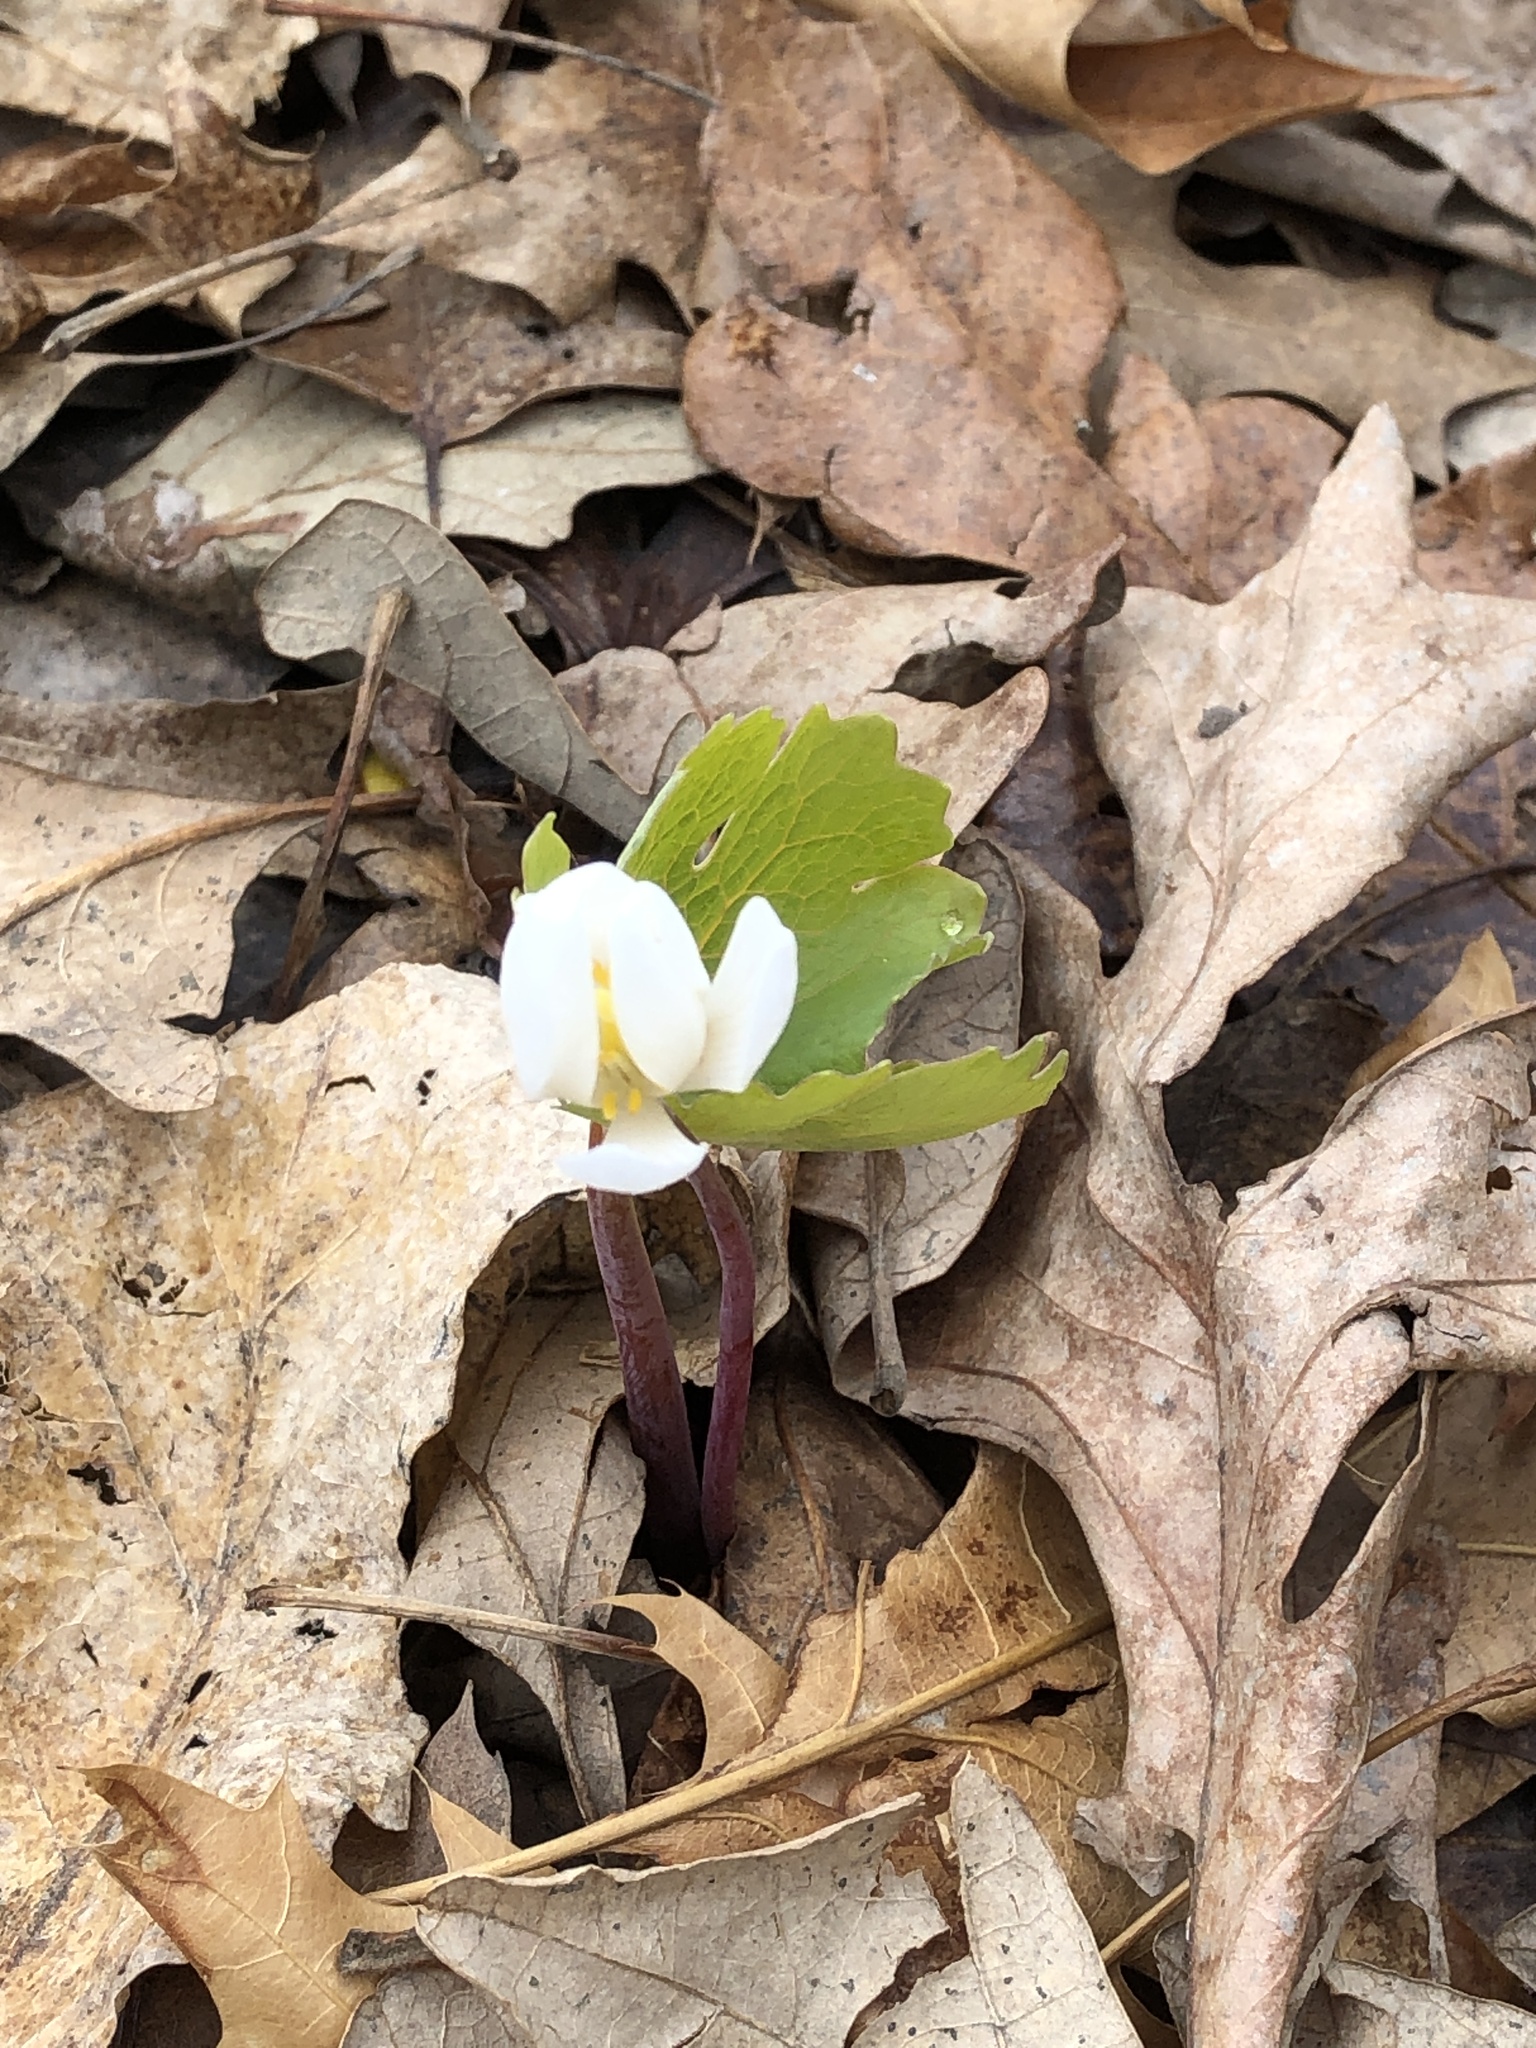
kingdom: Plantae
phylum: Tracheophyta
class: Magnoliopsida
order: Ranunculales
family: Papaveraceae
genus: Sanguinaria
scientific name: Sanguinaria canadensis
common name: Bloodroot
